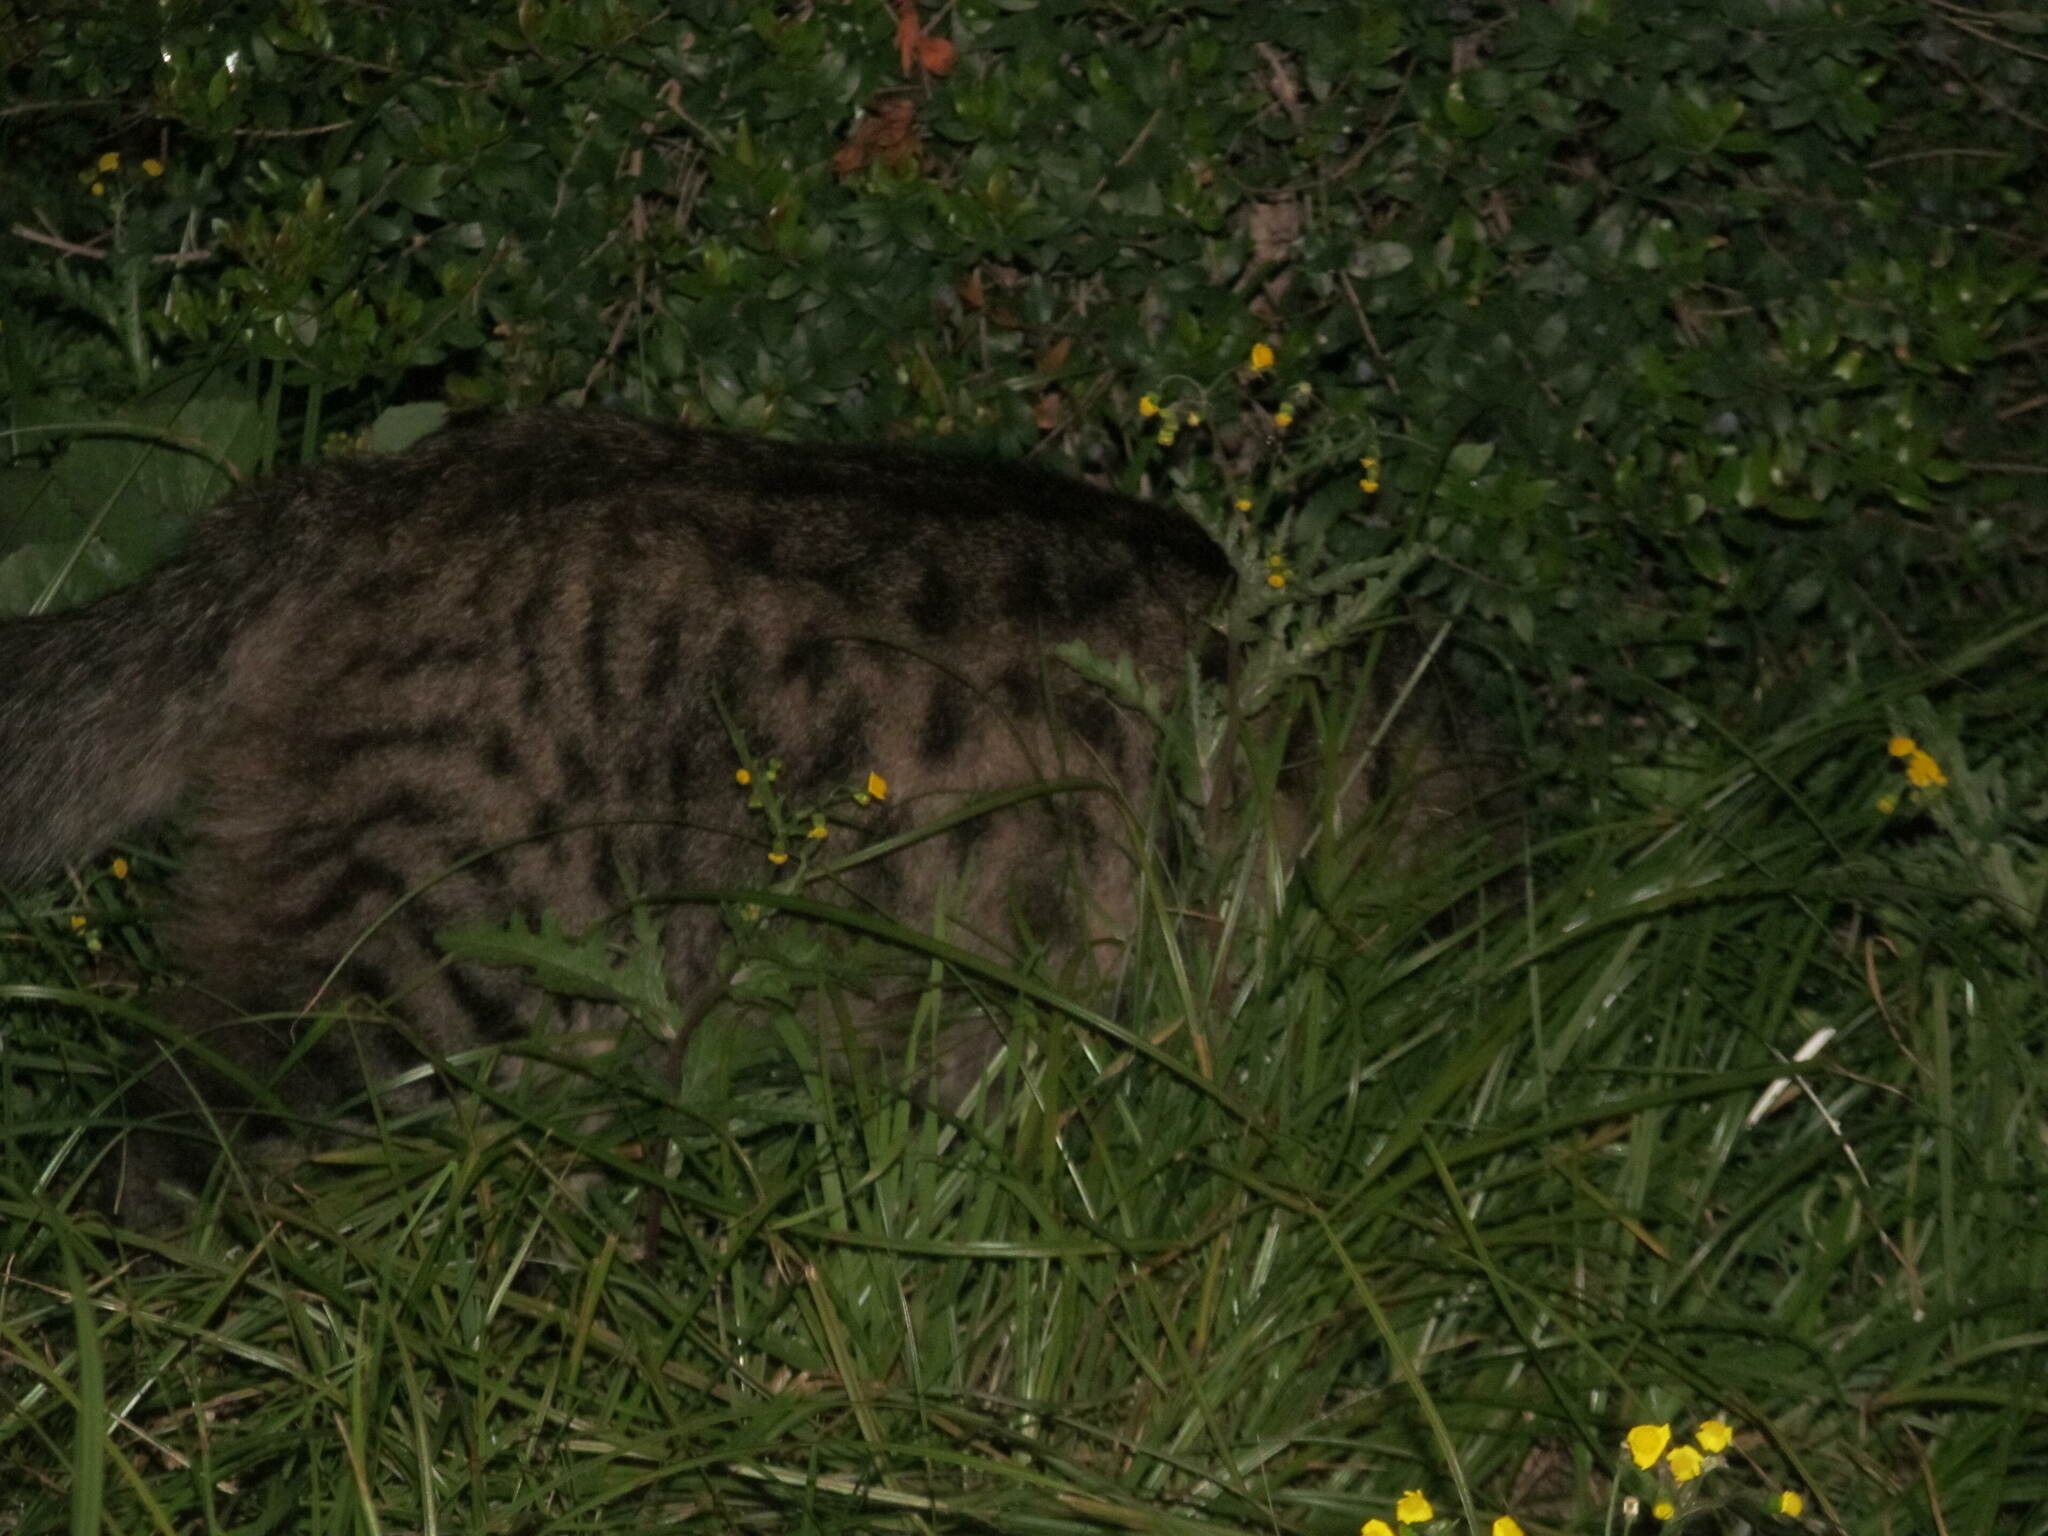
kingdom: Animalia
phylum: Chordata
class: Mammalia
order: Carnivora
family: Felidae
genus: Felis
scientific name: Felis catus
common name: Domestic cat
